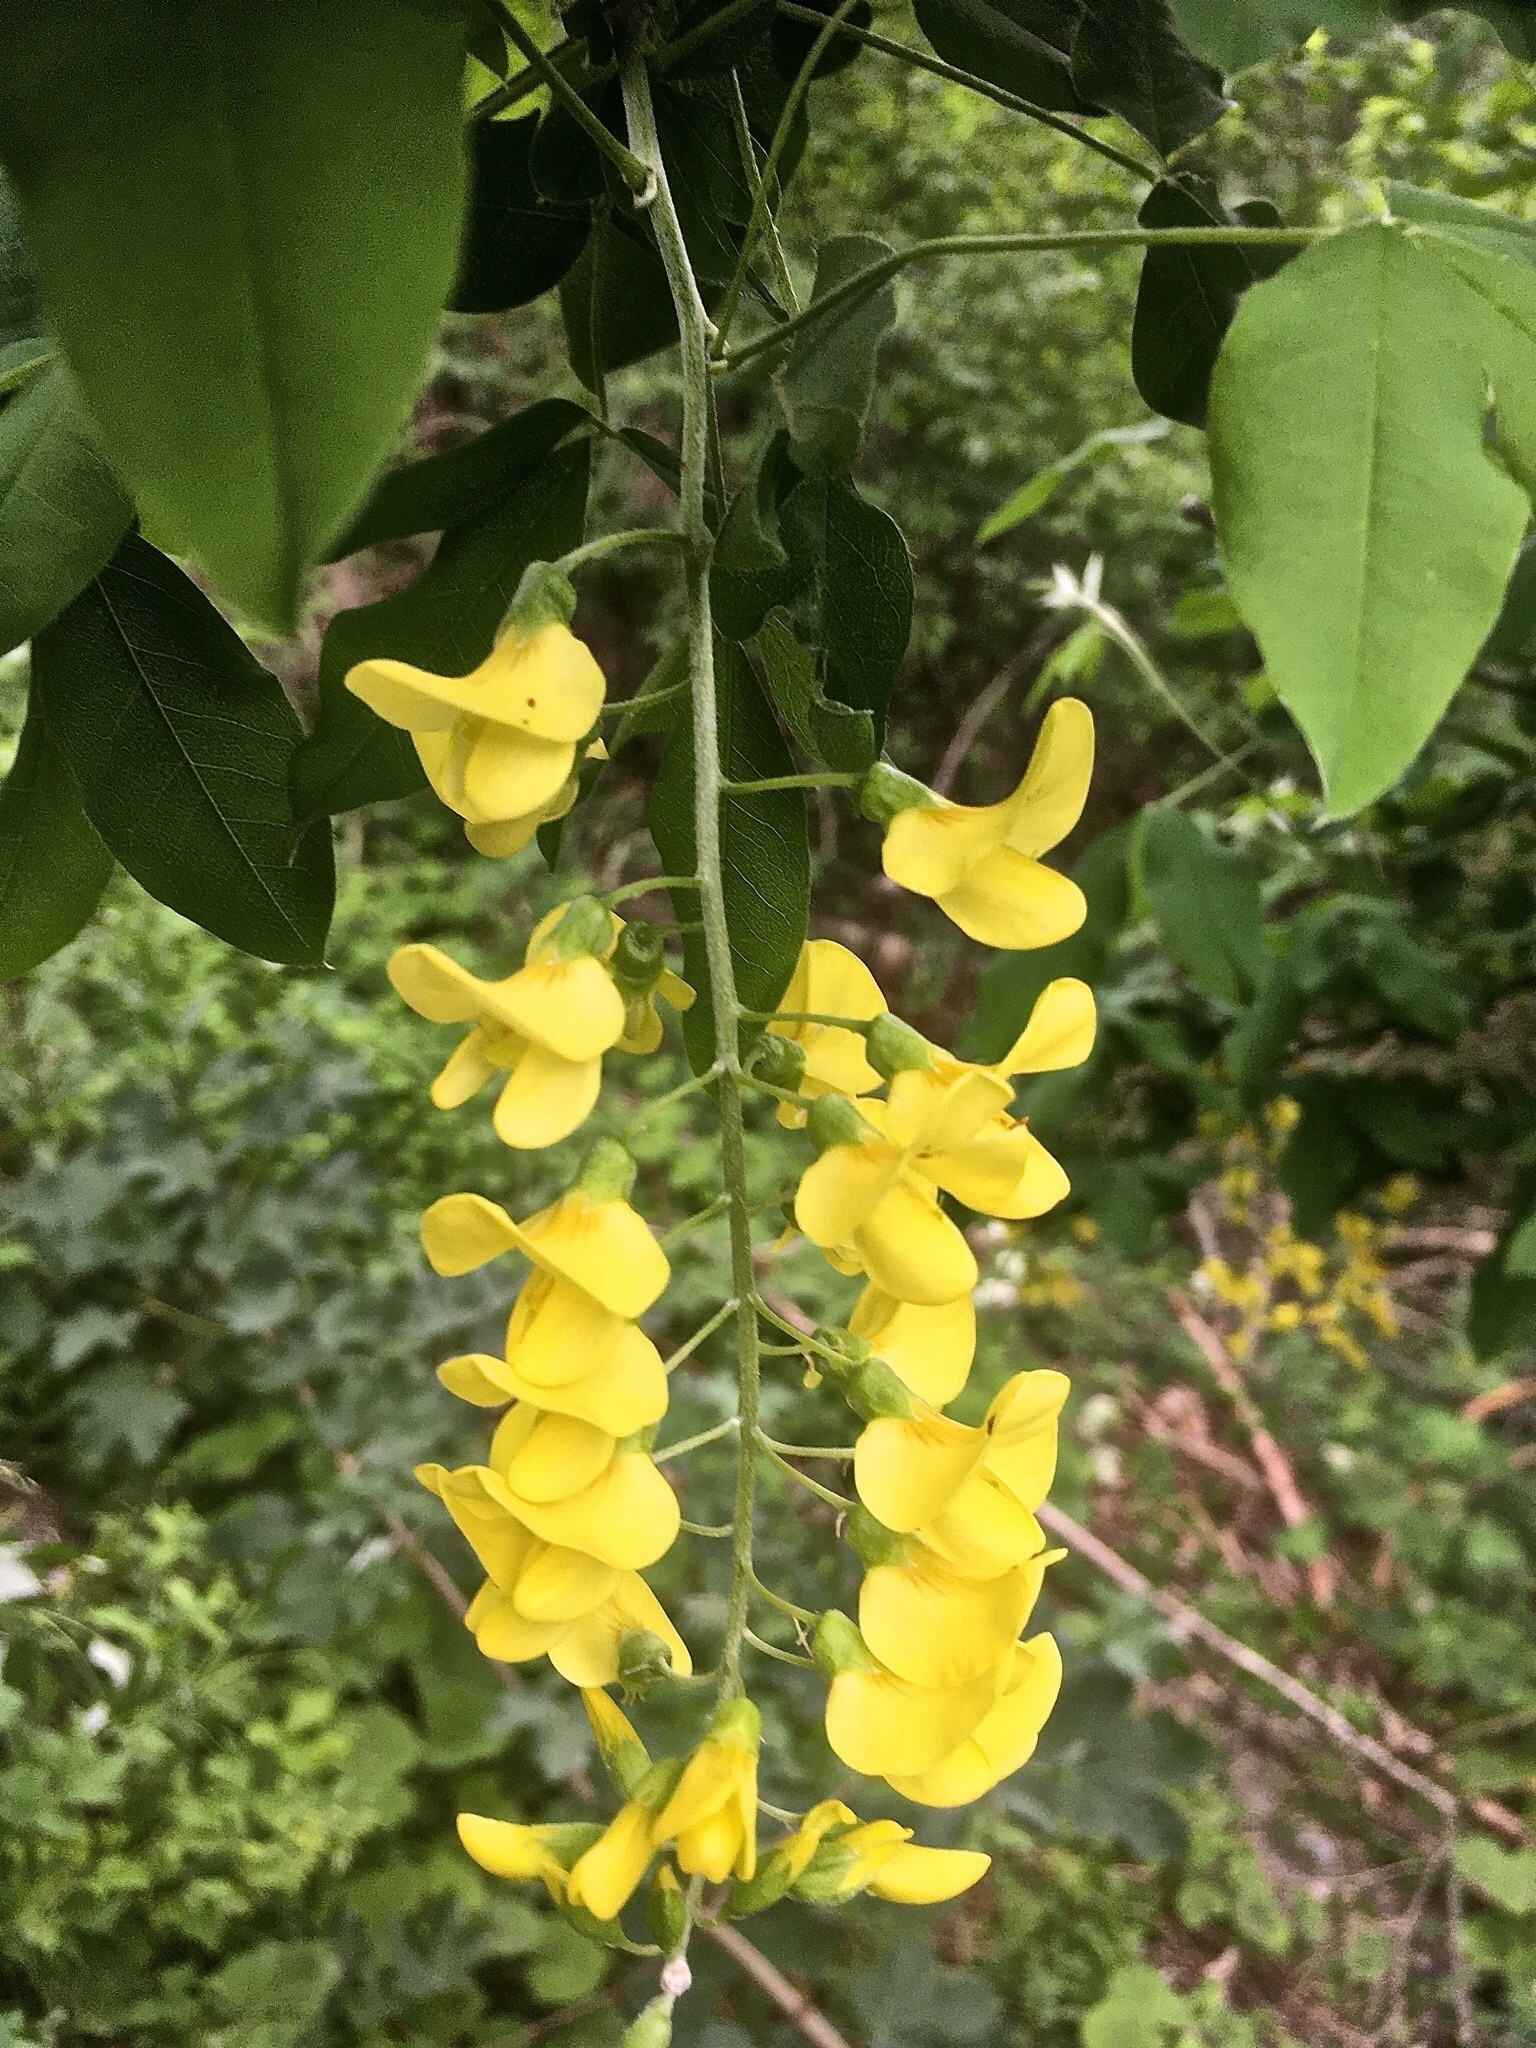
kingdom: Plantae
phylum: Tracheophyta
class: Magnoliopsida
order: Fabales
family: Fabaceae
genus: Laburnum
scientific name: Laburnum anagyroides
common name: Laburnum
